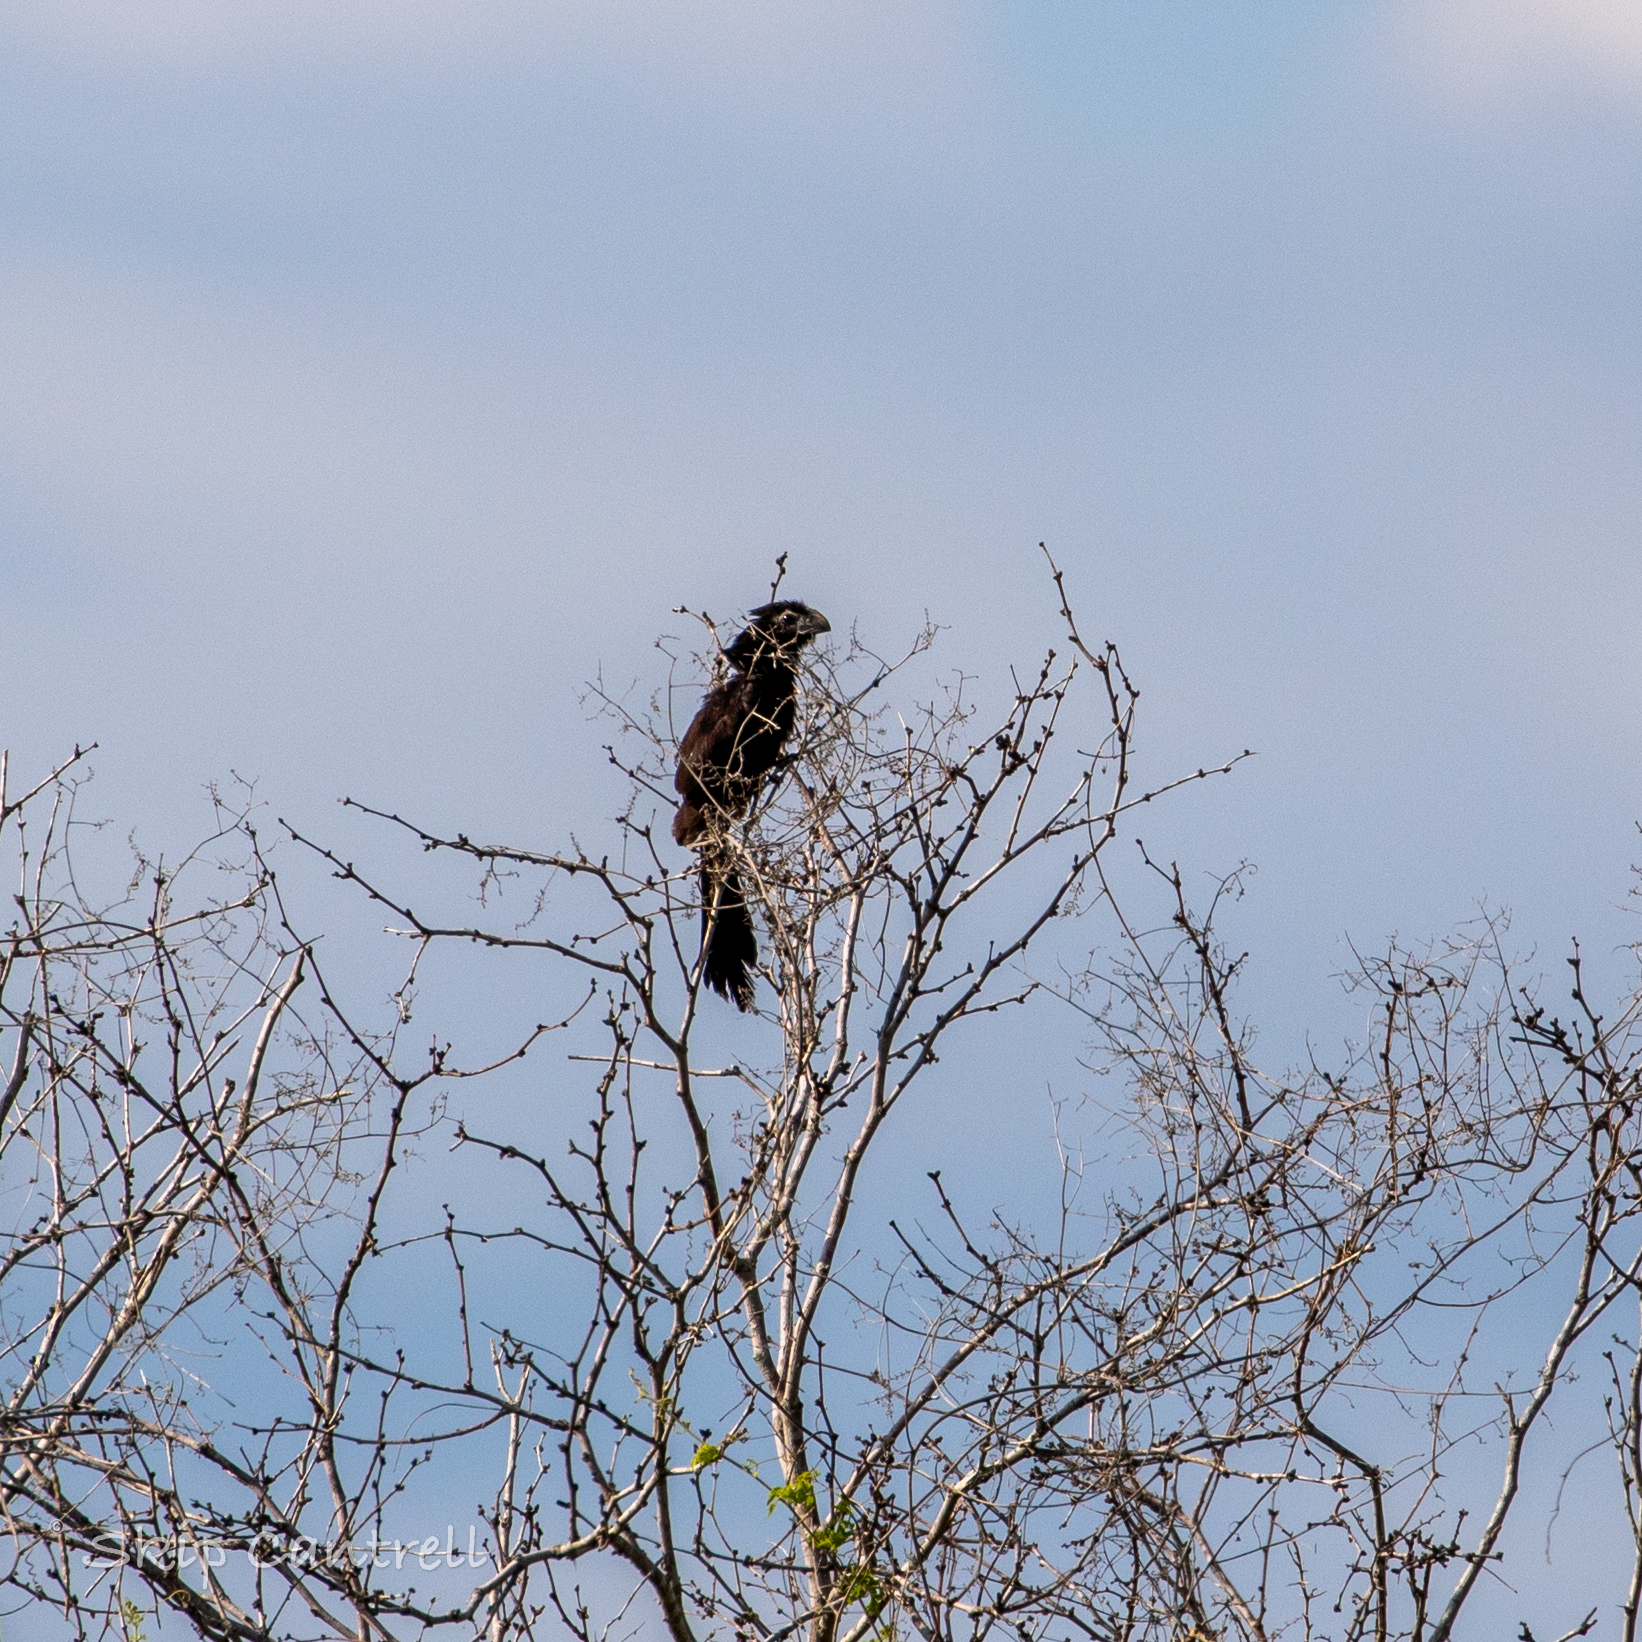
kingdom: Animalia
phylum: Chordata
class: Aves
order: Cuculiformes
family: Cuculidae
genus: Crotophaga
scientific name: Crotophaga sulcirostris
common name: Groove-billed ani
